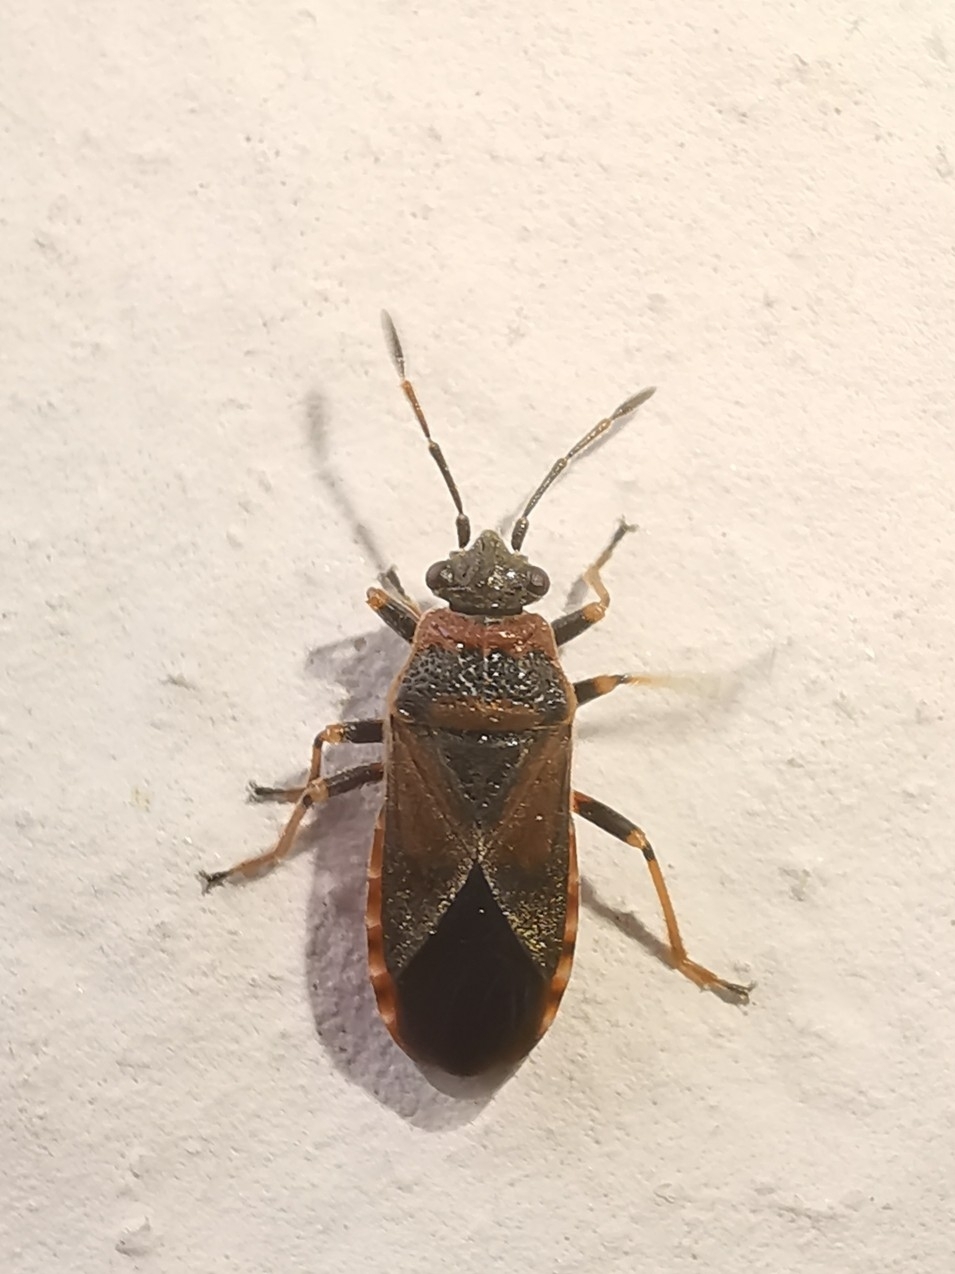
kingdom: Animalia
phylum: Arthropoda
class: Insecta
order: Hemiptera
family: Lygaeidae
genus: Arocatus
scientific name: Arocatus melanocephalus
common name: Lygaeid bug
